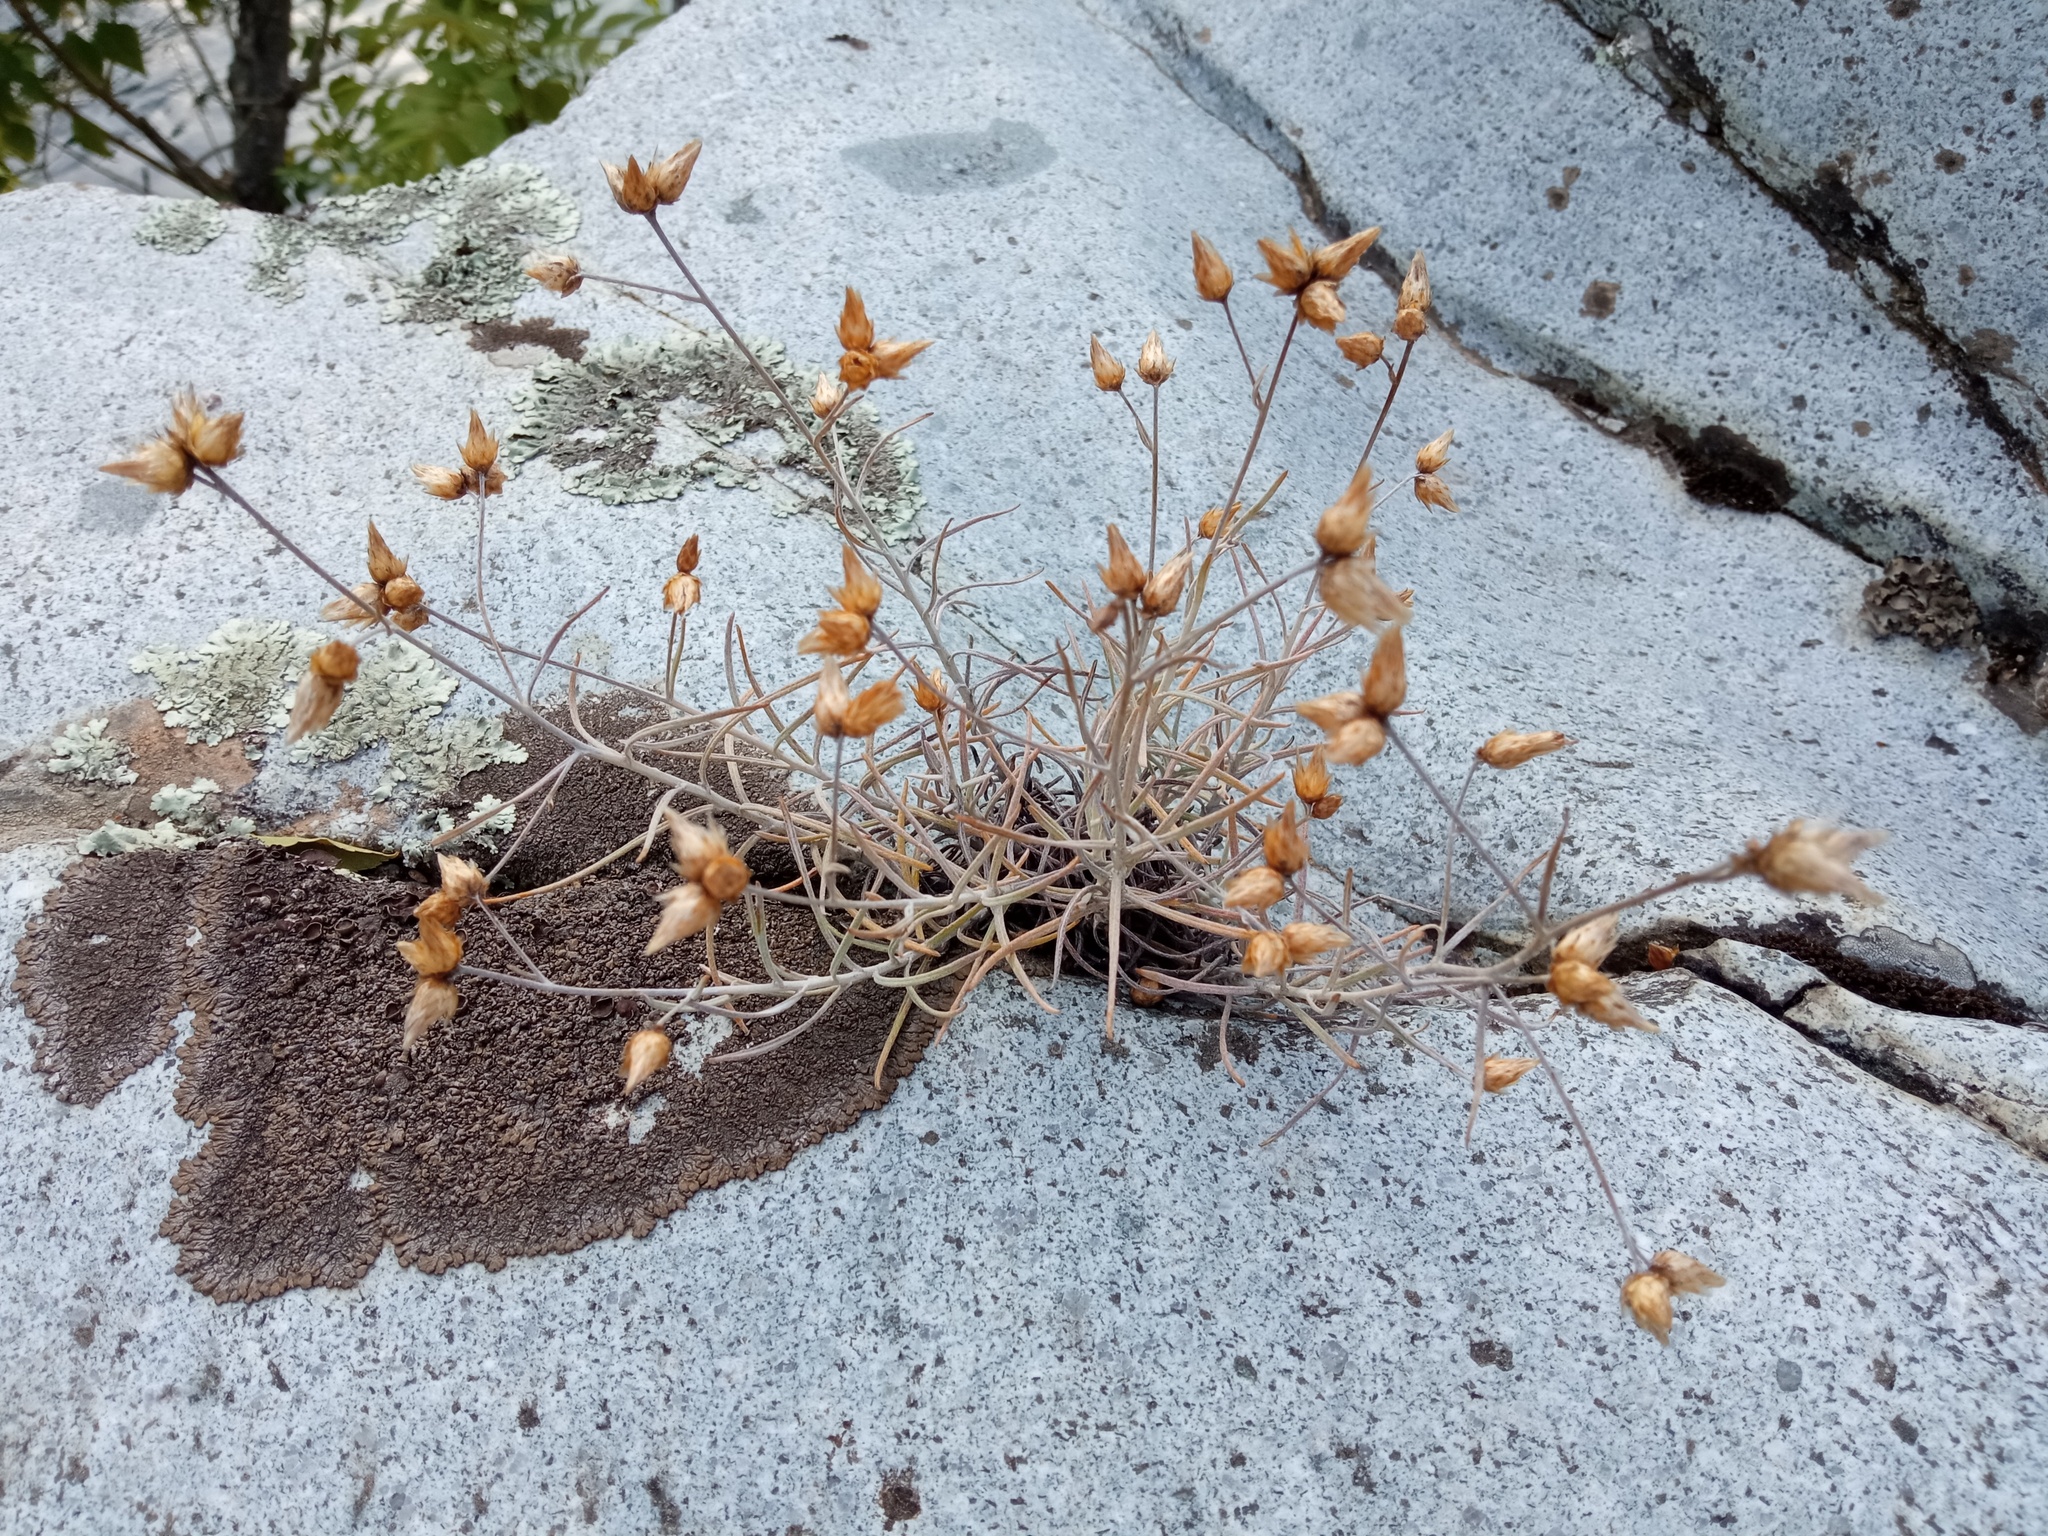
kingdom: Plantae
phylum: Tracheophyta
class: Magnoliopsida
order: Asterales
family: Asteraceae
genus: Phagnalon
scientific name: Phagnalon sordidum
